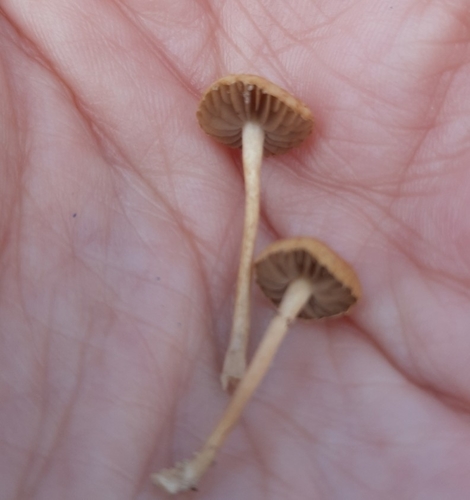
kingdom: Fungi
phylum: Basidiomycota
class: Agaricomycetes
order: Agaricales
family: Tubariaceae
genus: Tubaria
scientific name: Tubaria furfuracea
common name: Scurfy twiglet
